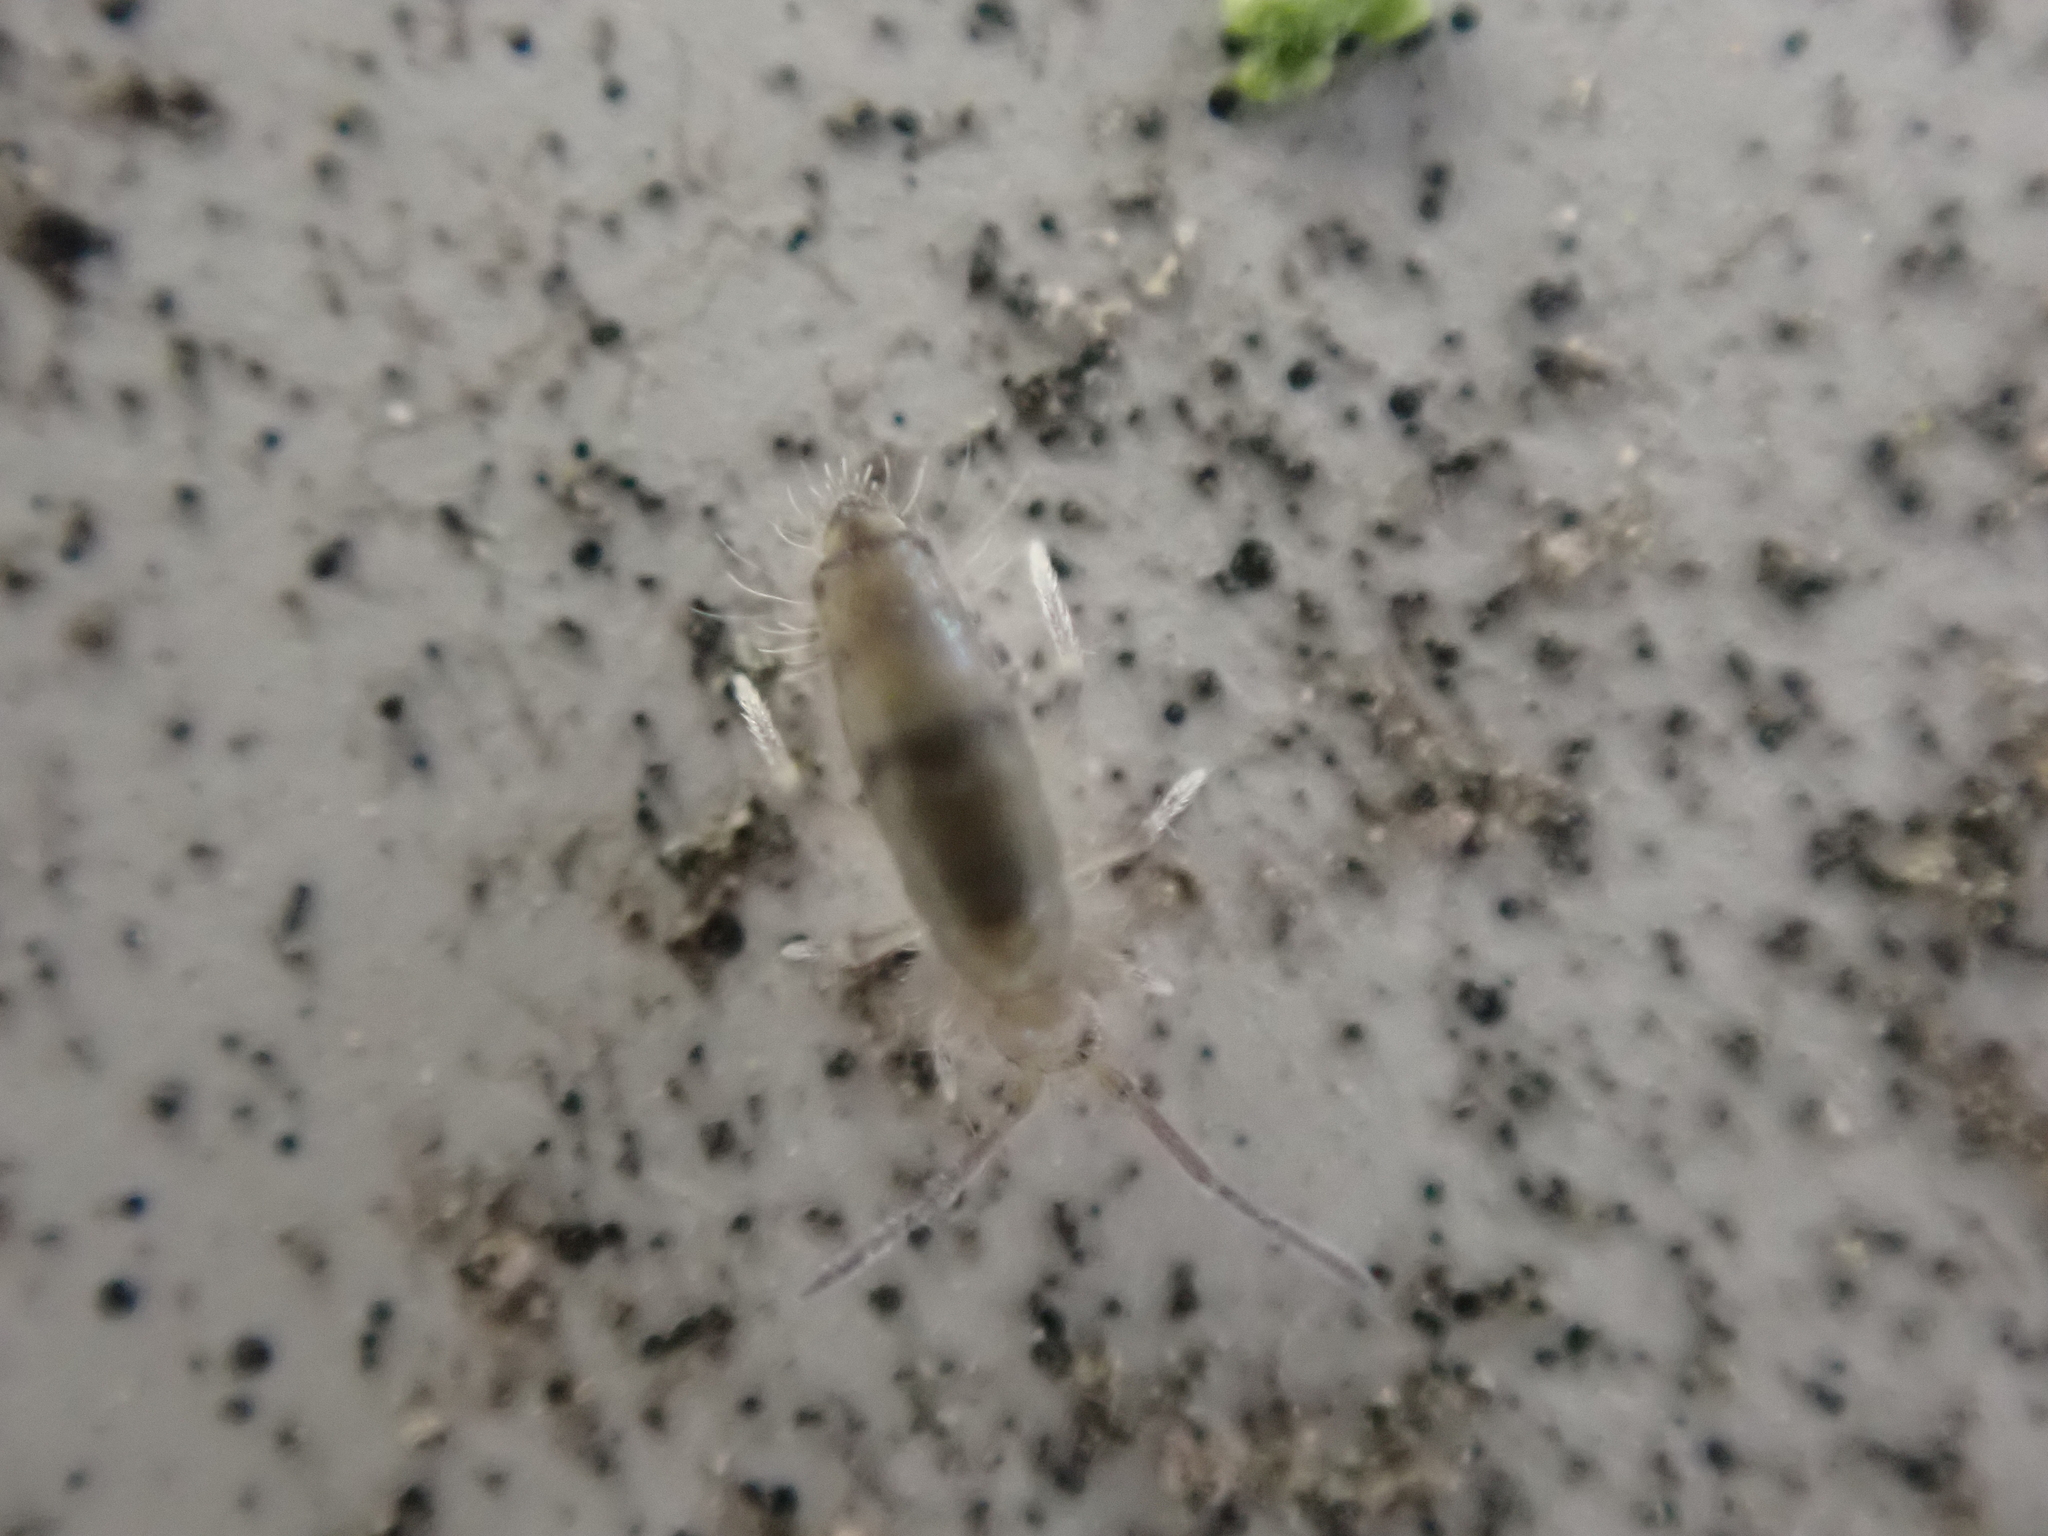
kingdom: Animalia
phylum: Arthropoda
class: Collembola
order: Entomobryomorpha
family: Entomobryidae
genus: Willowsia
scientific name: Willowsia nigromaculata
